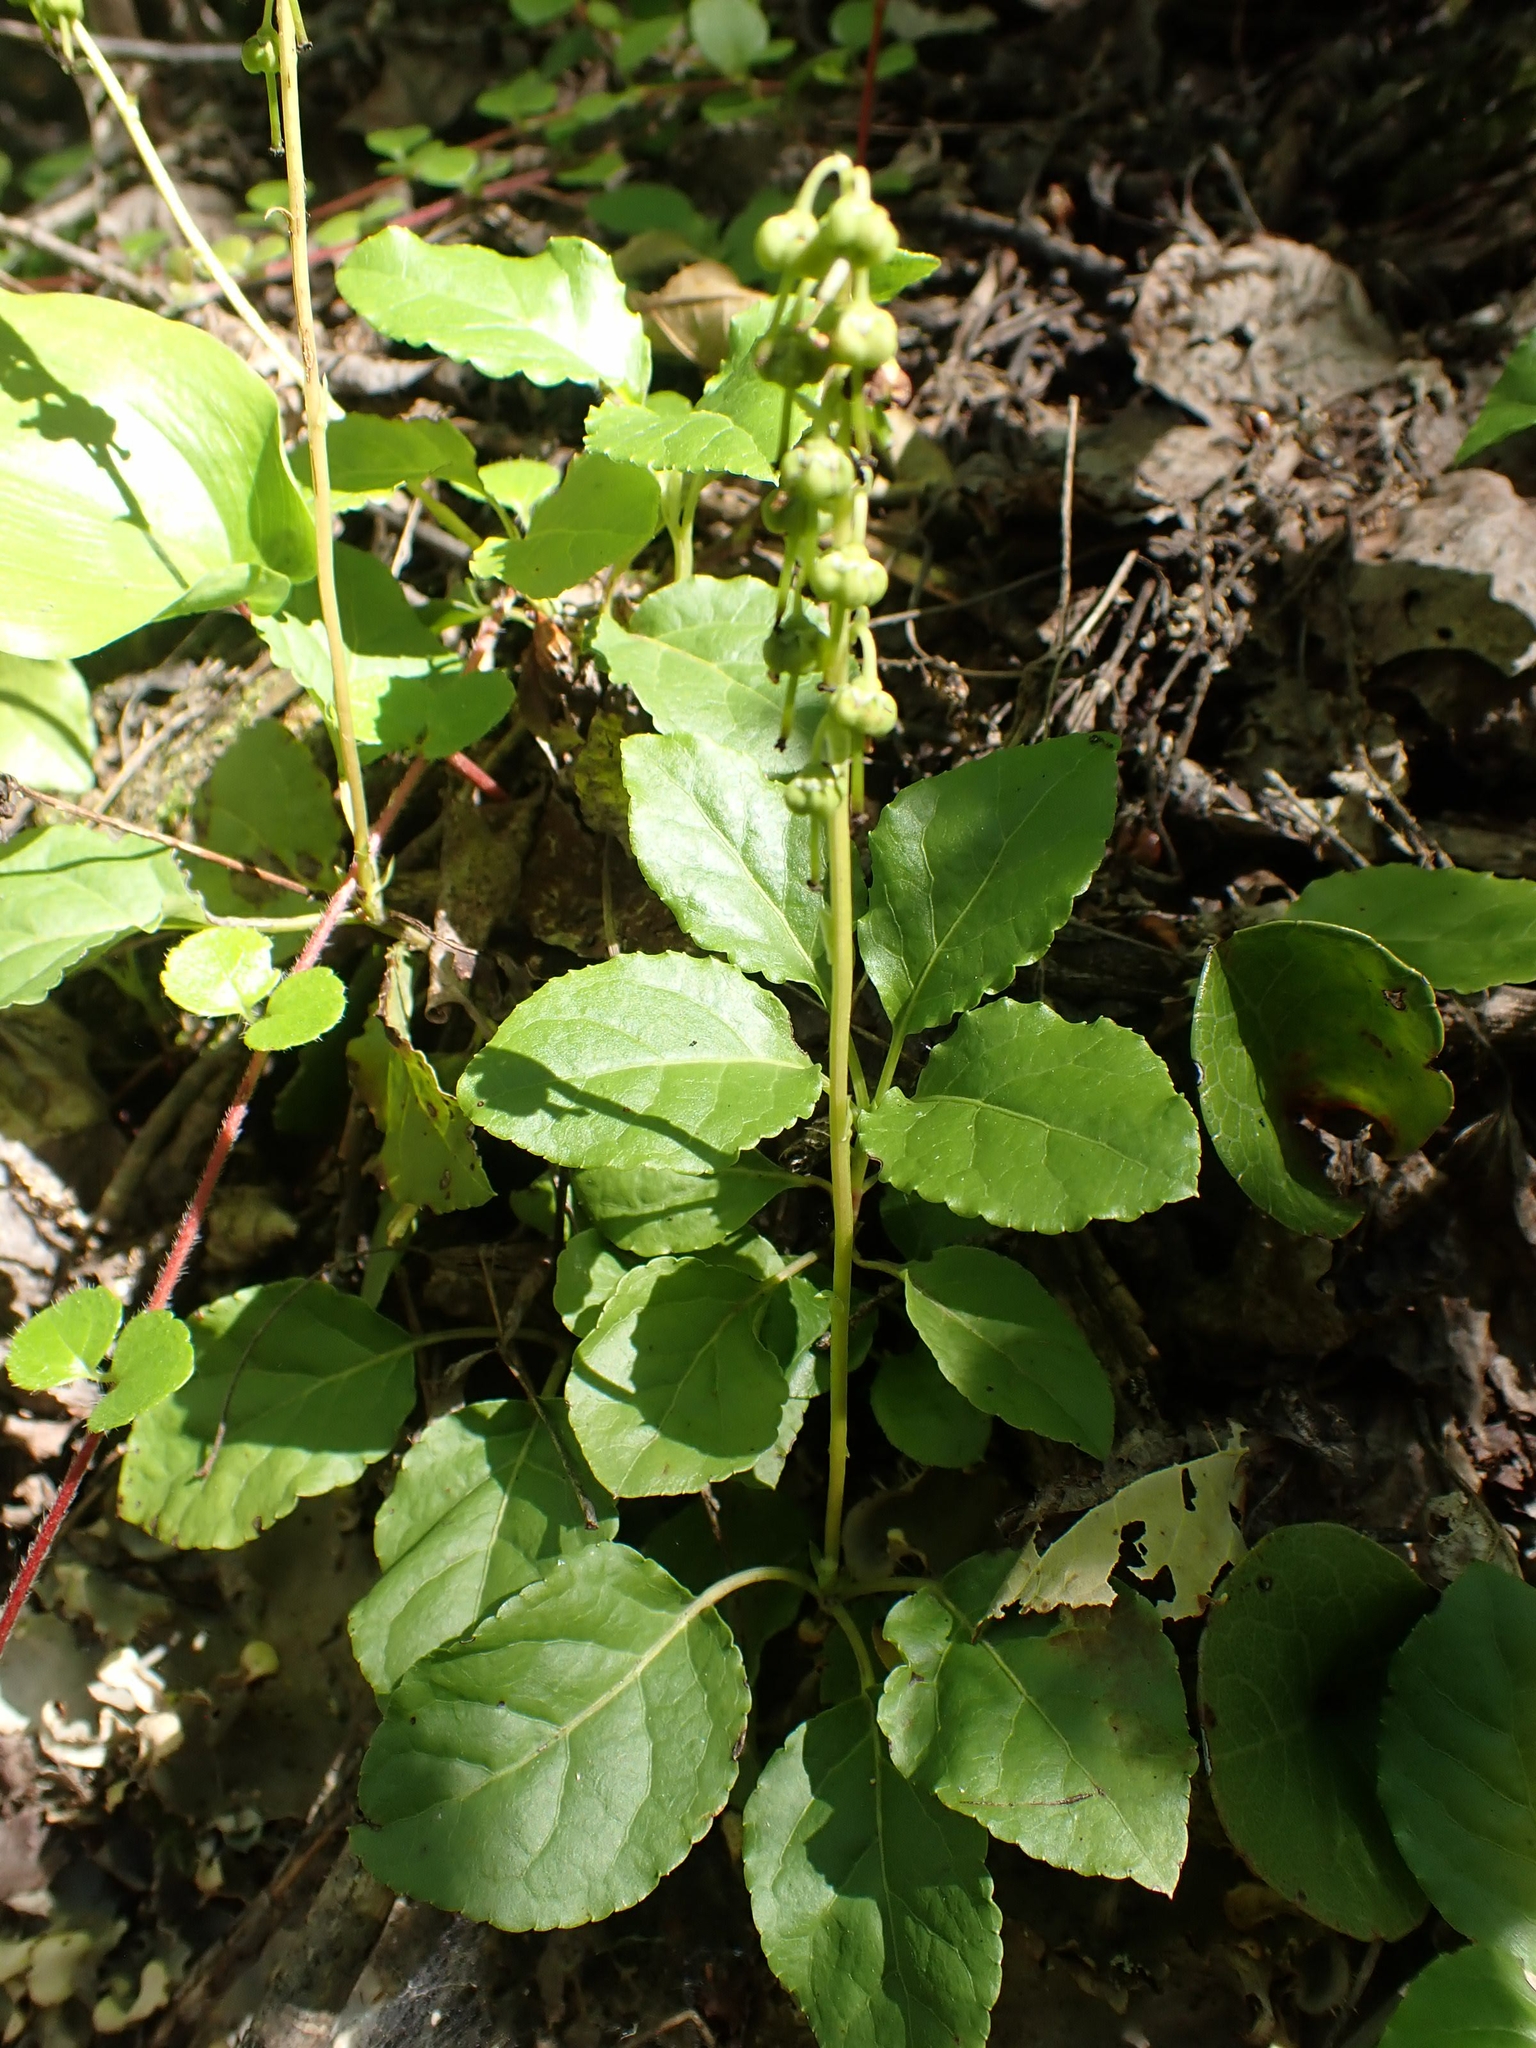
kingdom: Plantae
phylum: Tracheophyta
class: Magnoliopsida
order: Ericales
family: Ericaceae
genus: Orthilia
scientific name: Orthilia secunda
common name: One-sided orthilia
